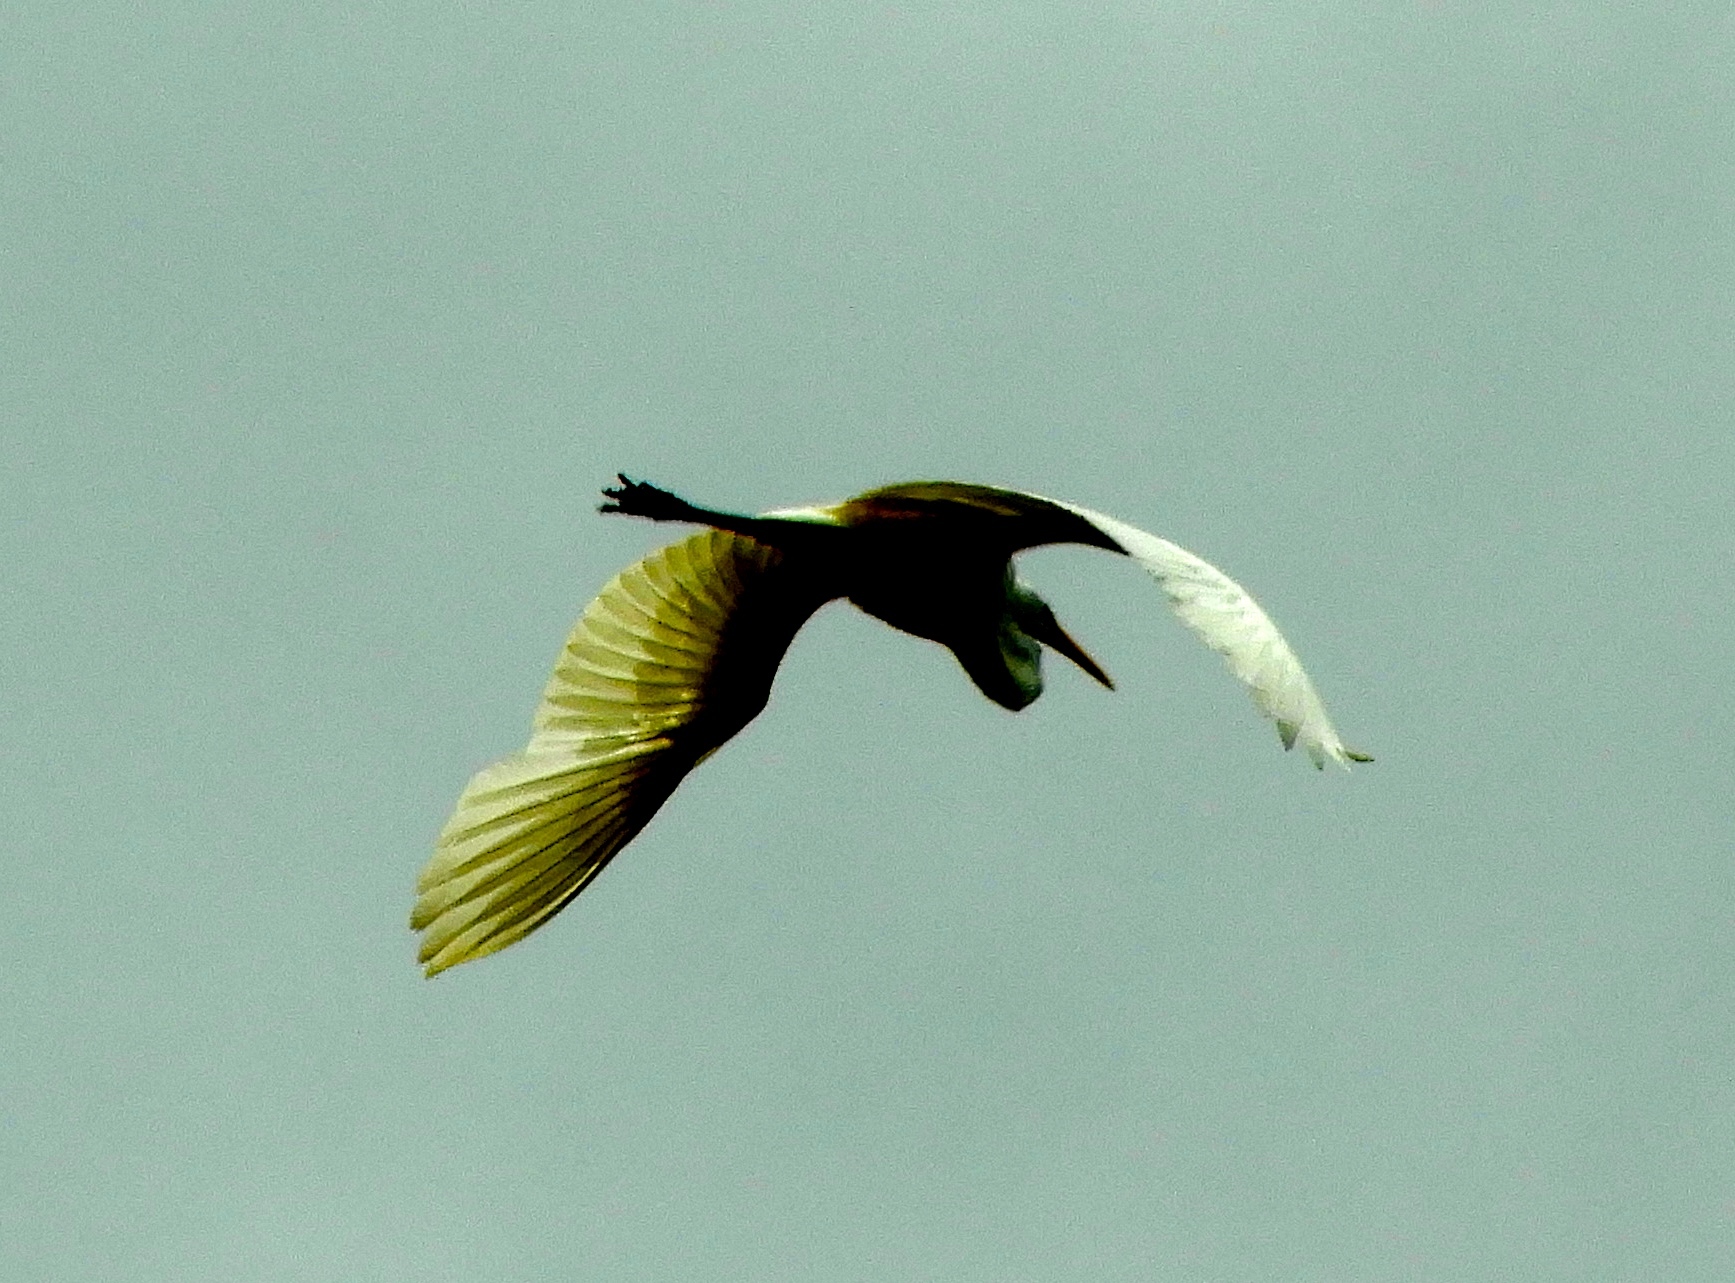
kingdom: Animalia
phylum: Chordata
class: Aves
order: Pelecaniformes
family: Ardeidae
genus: Ardea
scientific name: Ardea alba
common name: Great egret
